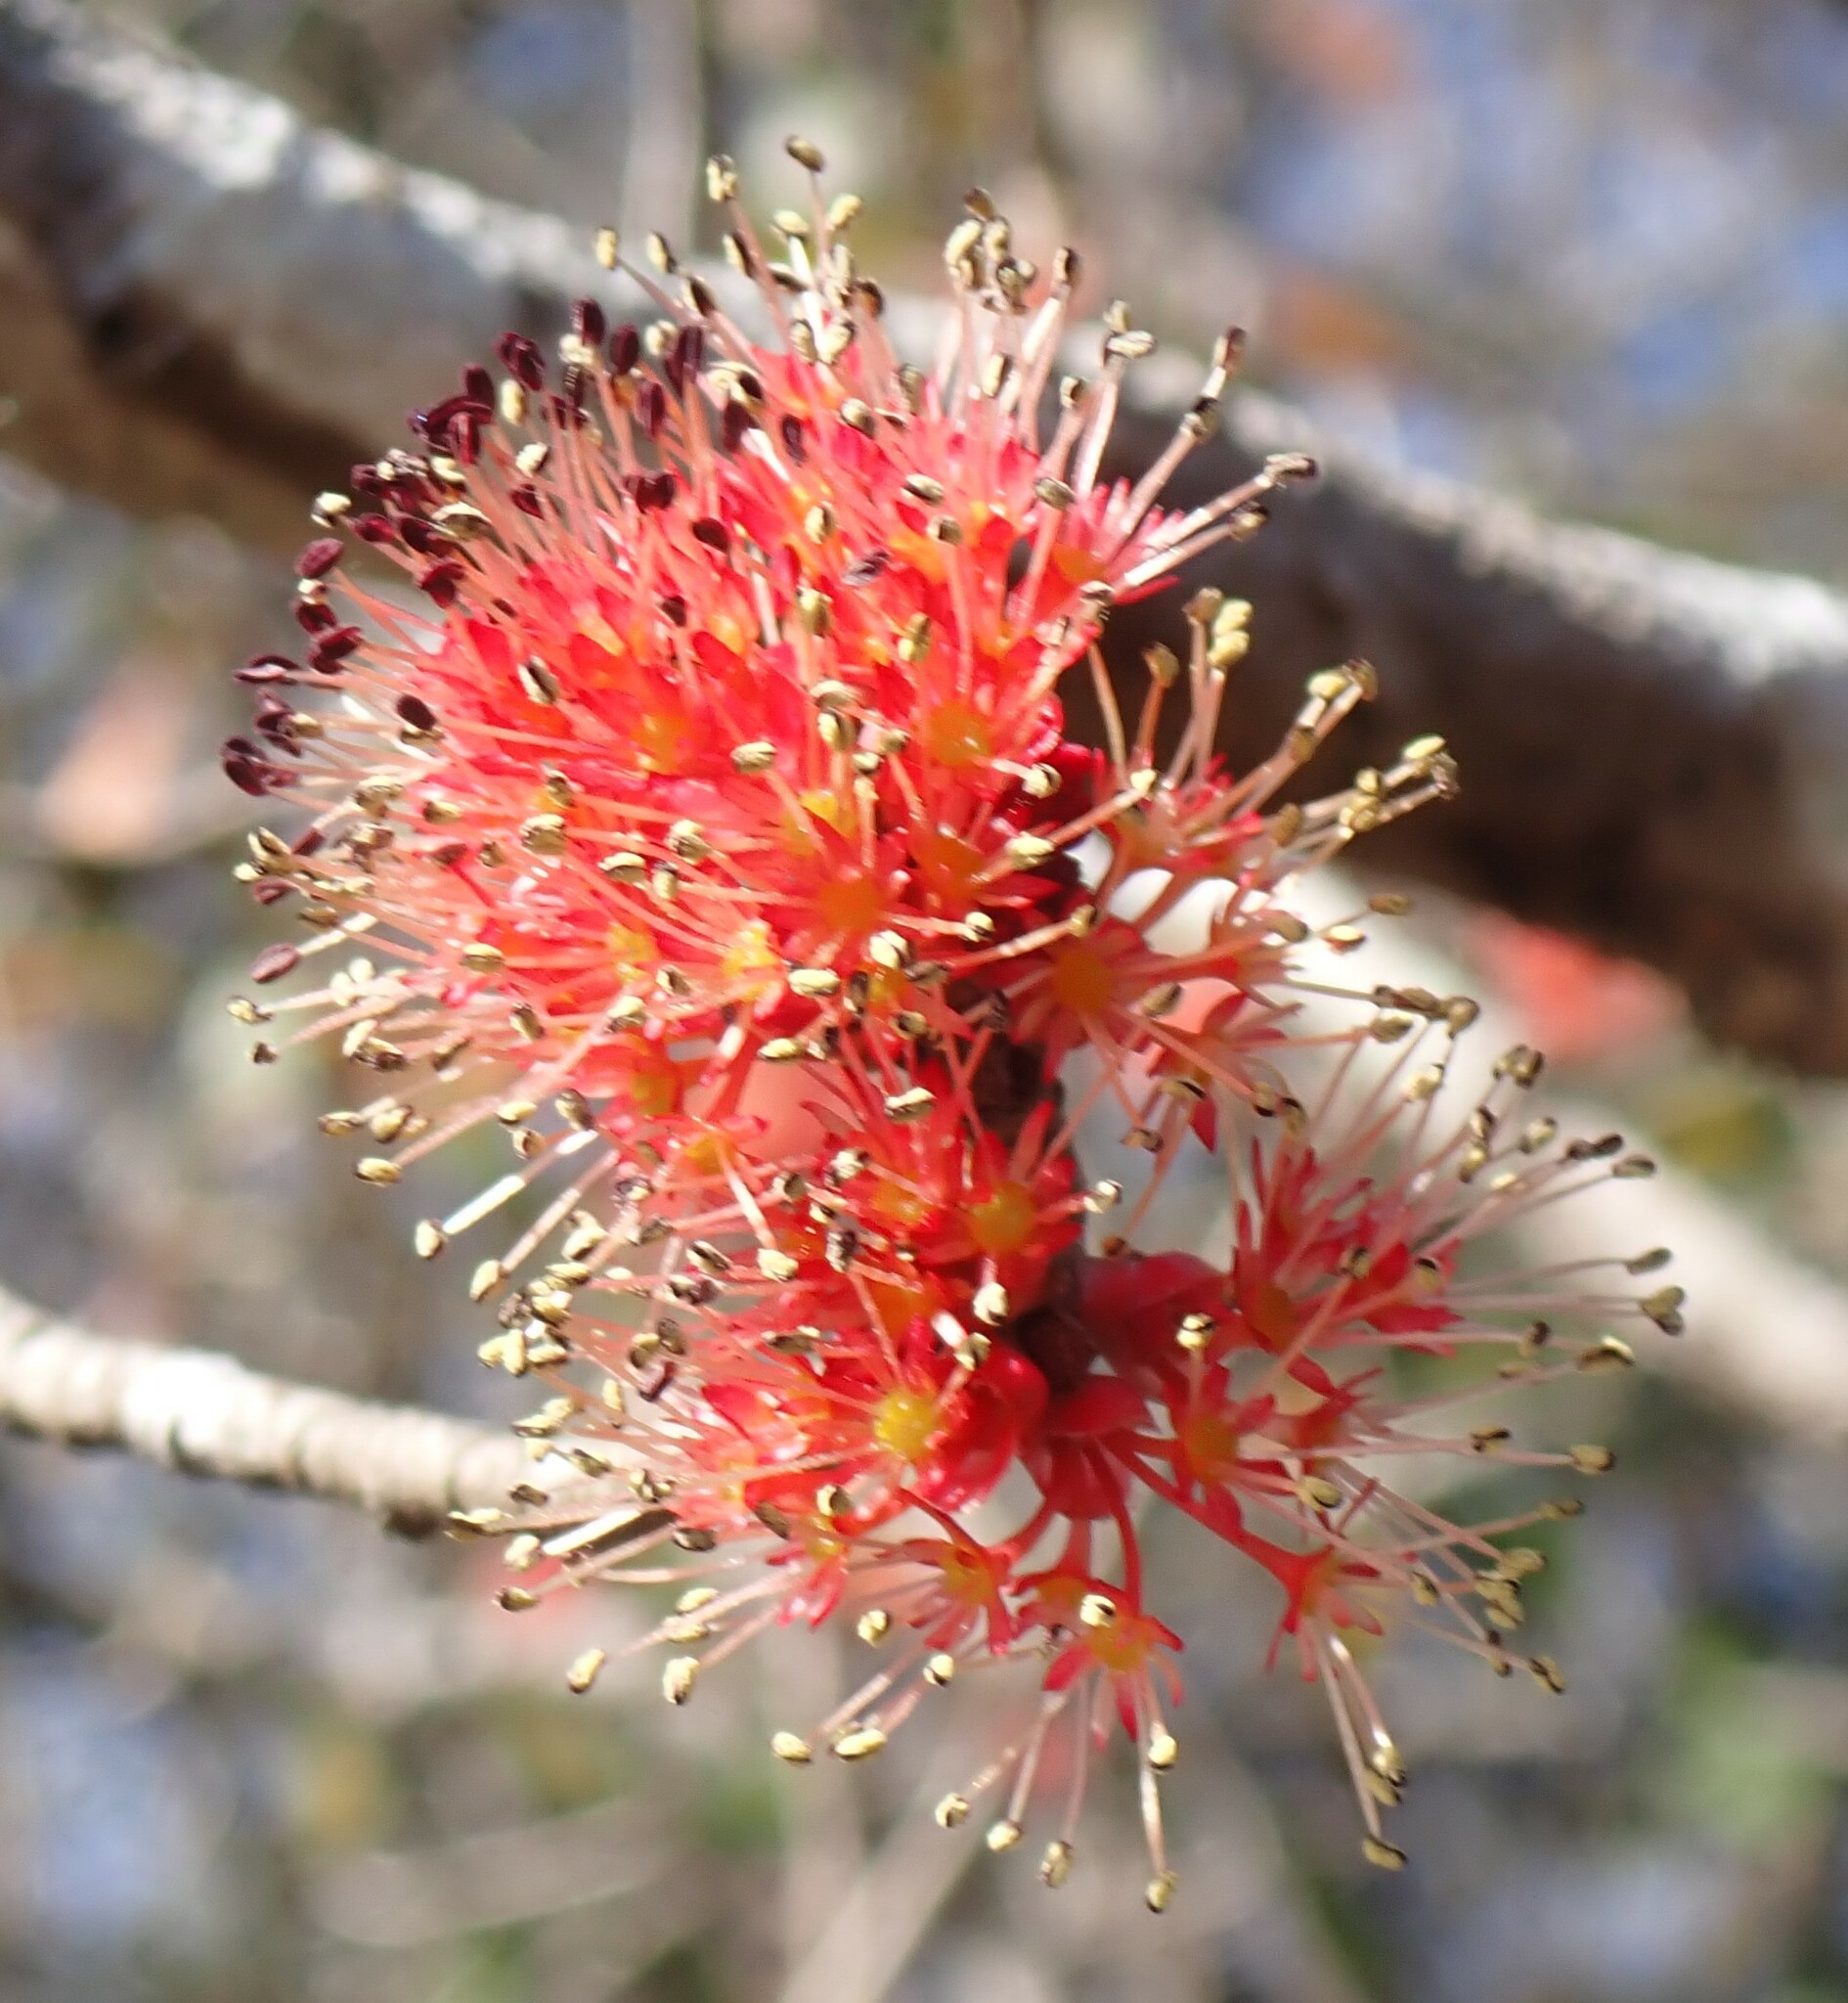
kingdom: Plantae
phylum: Tracheophyta
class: Magnoliopsida
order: Sapindales
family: Sapindaceae
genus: Acer
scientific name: Acer rubrum
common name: Red maple
